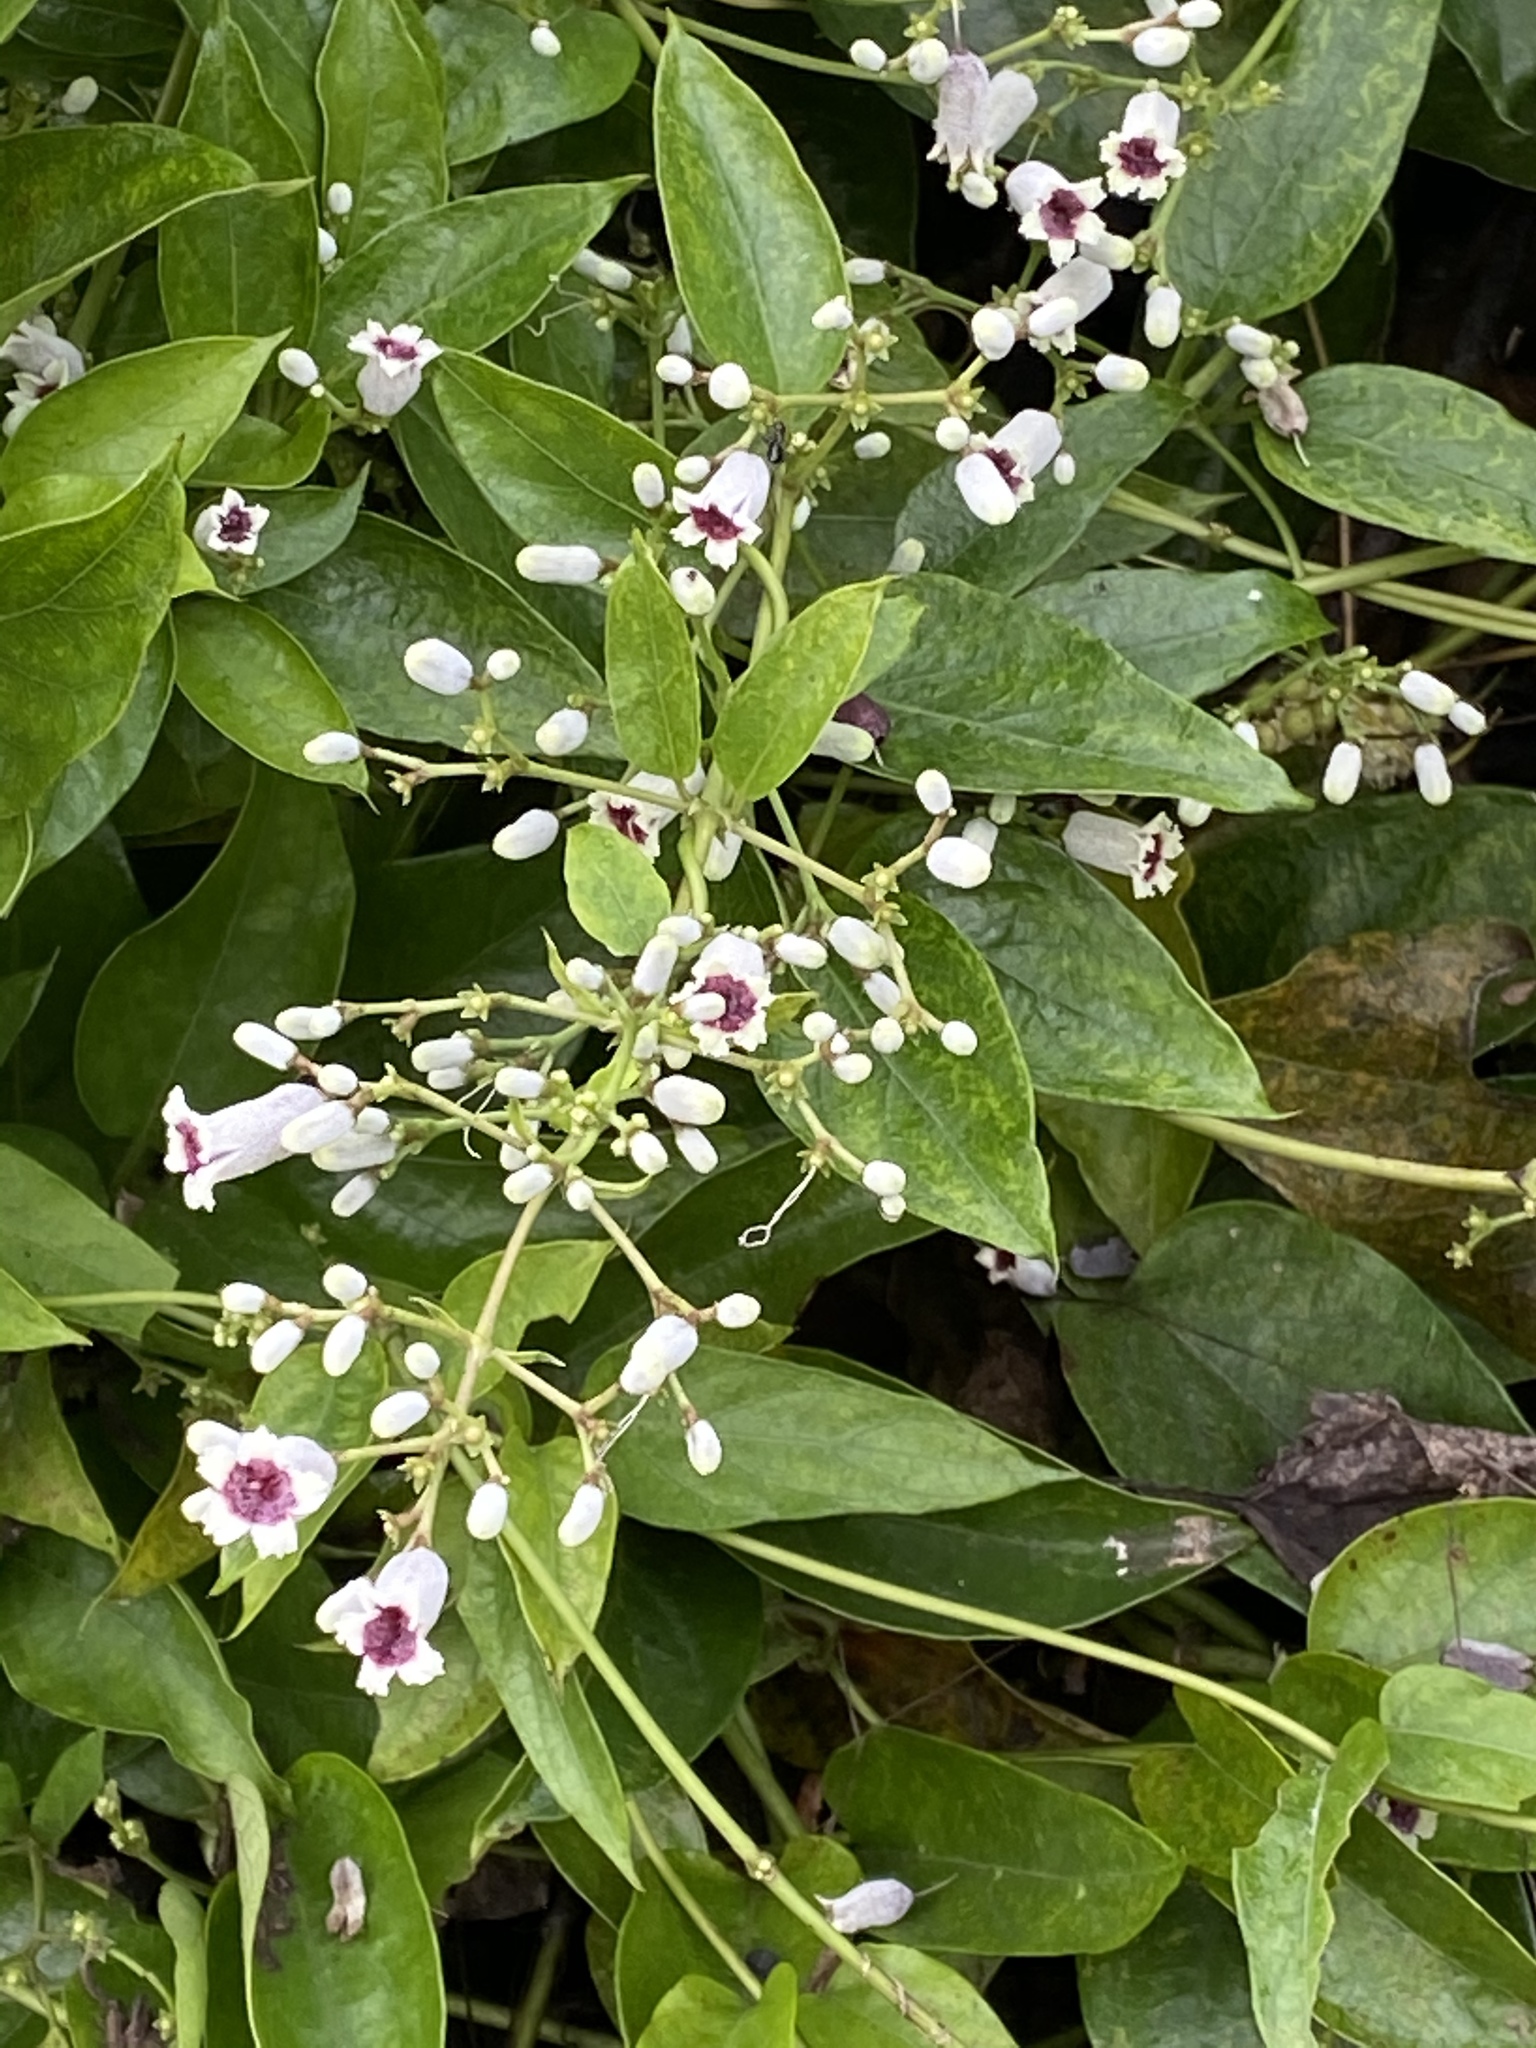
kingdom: Plantae
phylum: Tracheophyta
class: Magnoliopsida
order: Gentianales
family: Rubiaceae
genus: Paederia
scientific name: Paederia foetida
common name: Stinkvine
